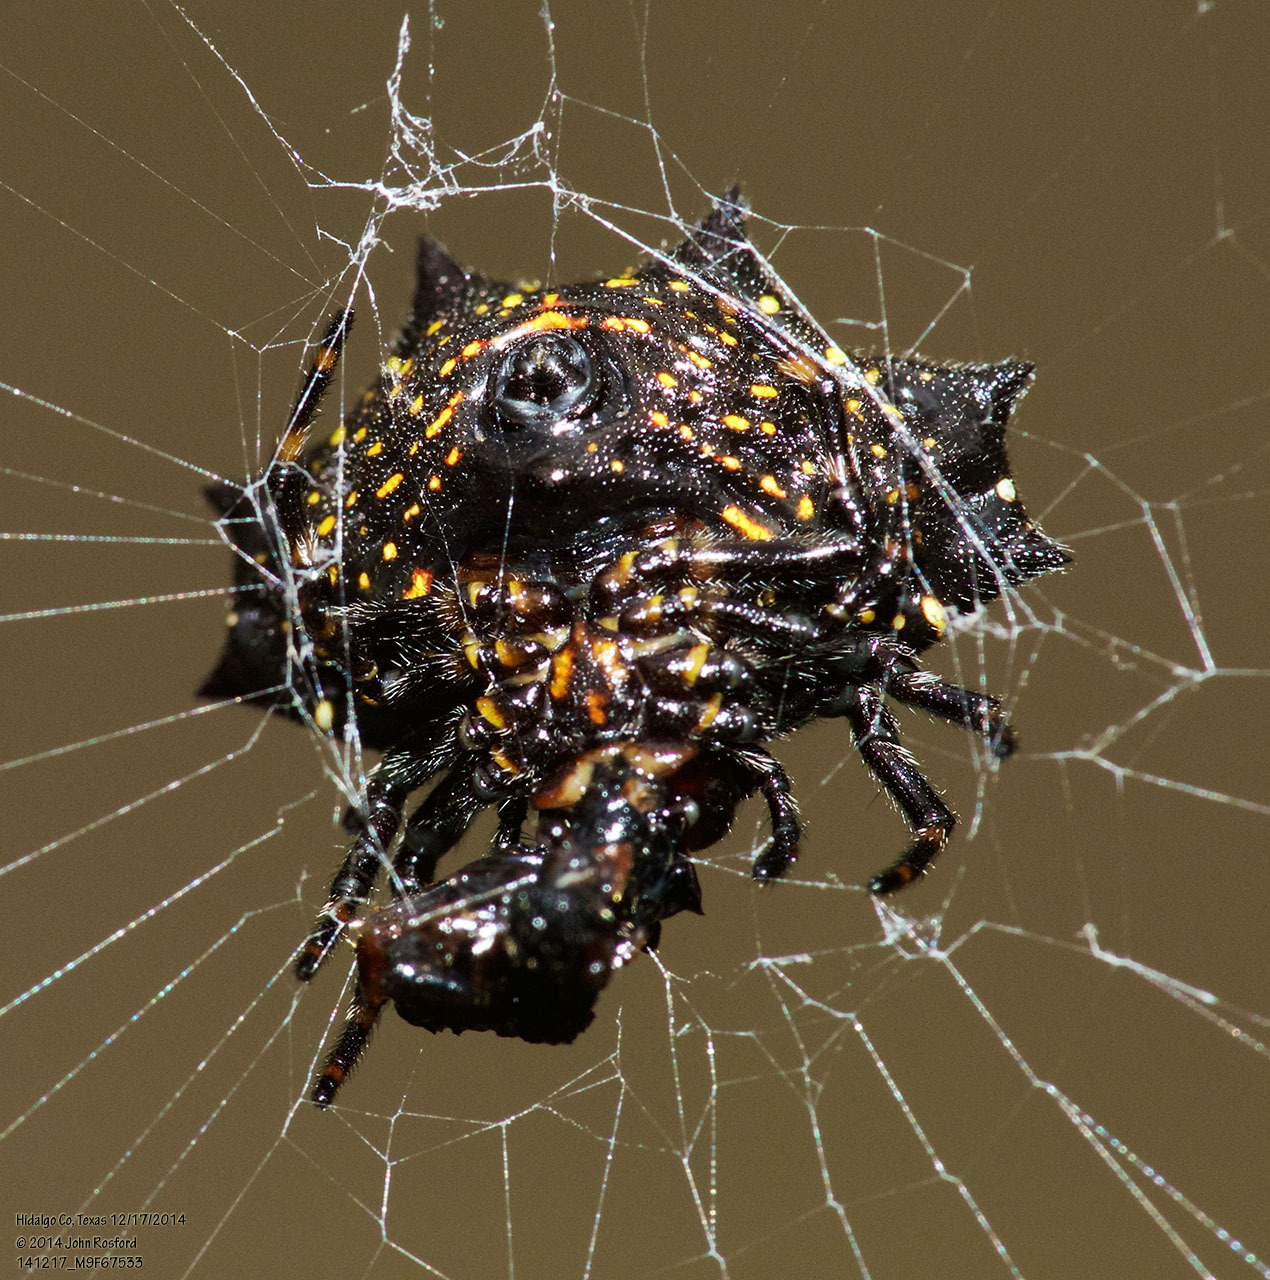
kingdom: Animalia
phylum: Arthropoda
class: Arachnida
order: Araneae
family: Araneidae
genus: Gasteracantha
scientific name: Gasteracantha cancriformis
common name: Orb weavers
